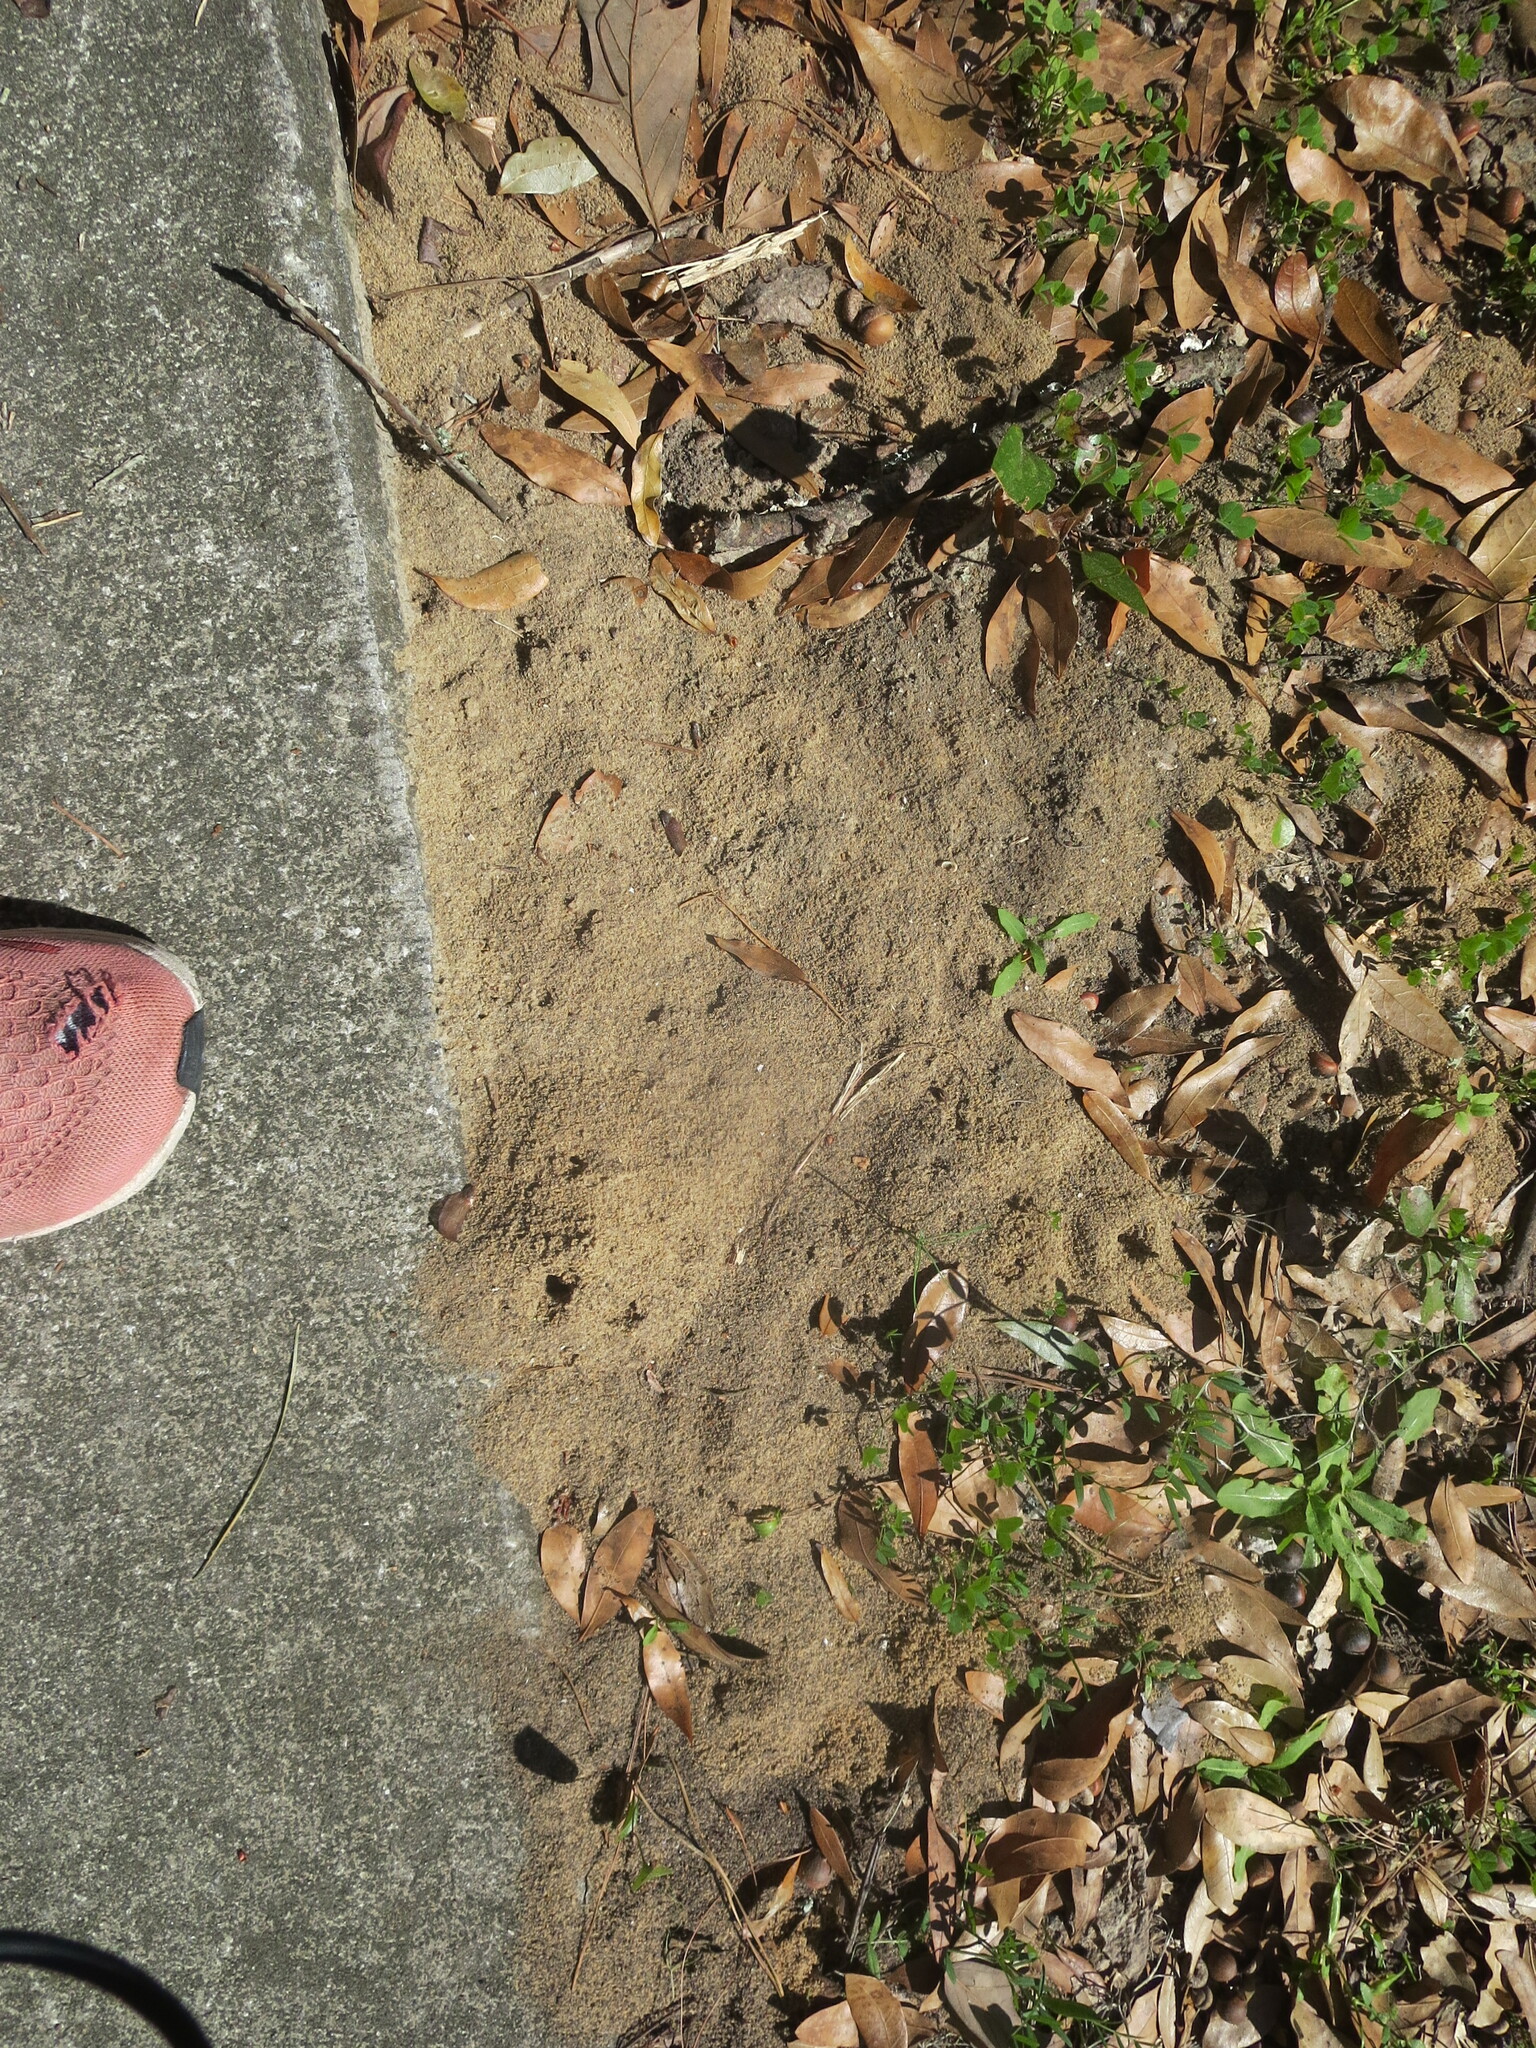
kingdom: Animalia
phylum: Arthropoda
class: Insecta
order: Hymenoptera
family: Formicidae
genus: Solenopsis
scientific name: Solenopsis invicta
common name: Red imported fire ant
